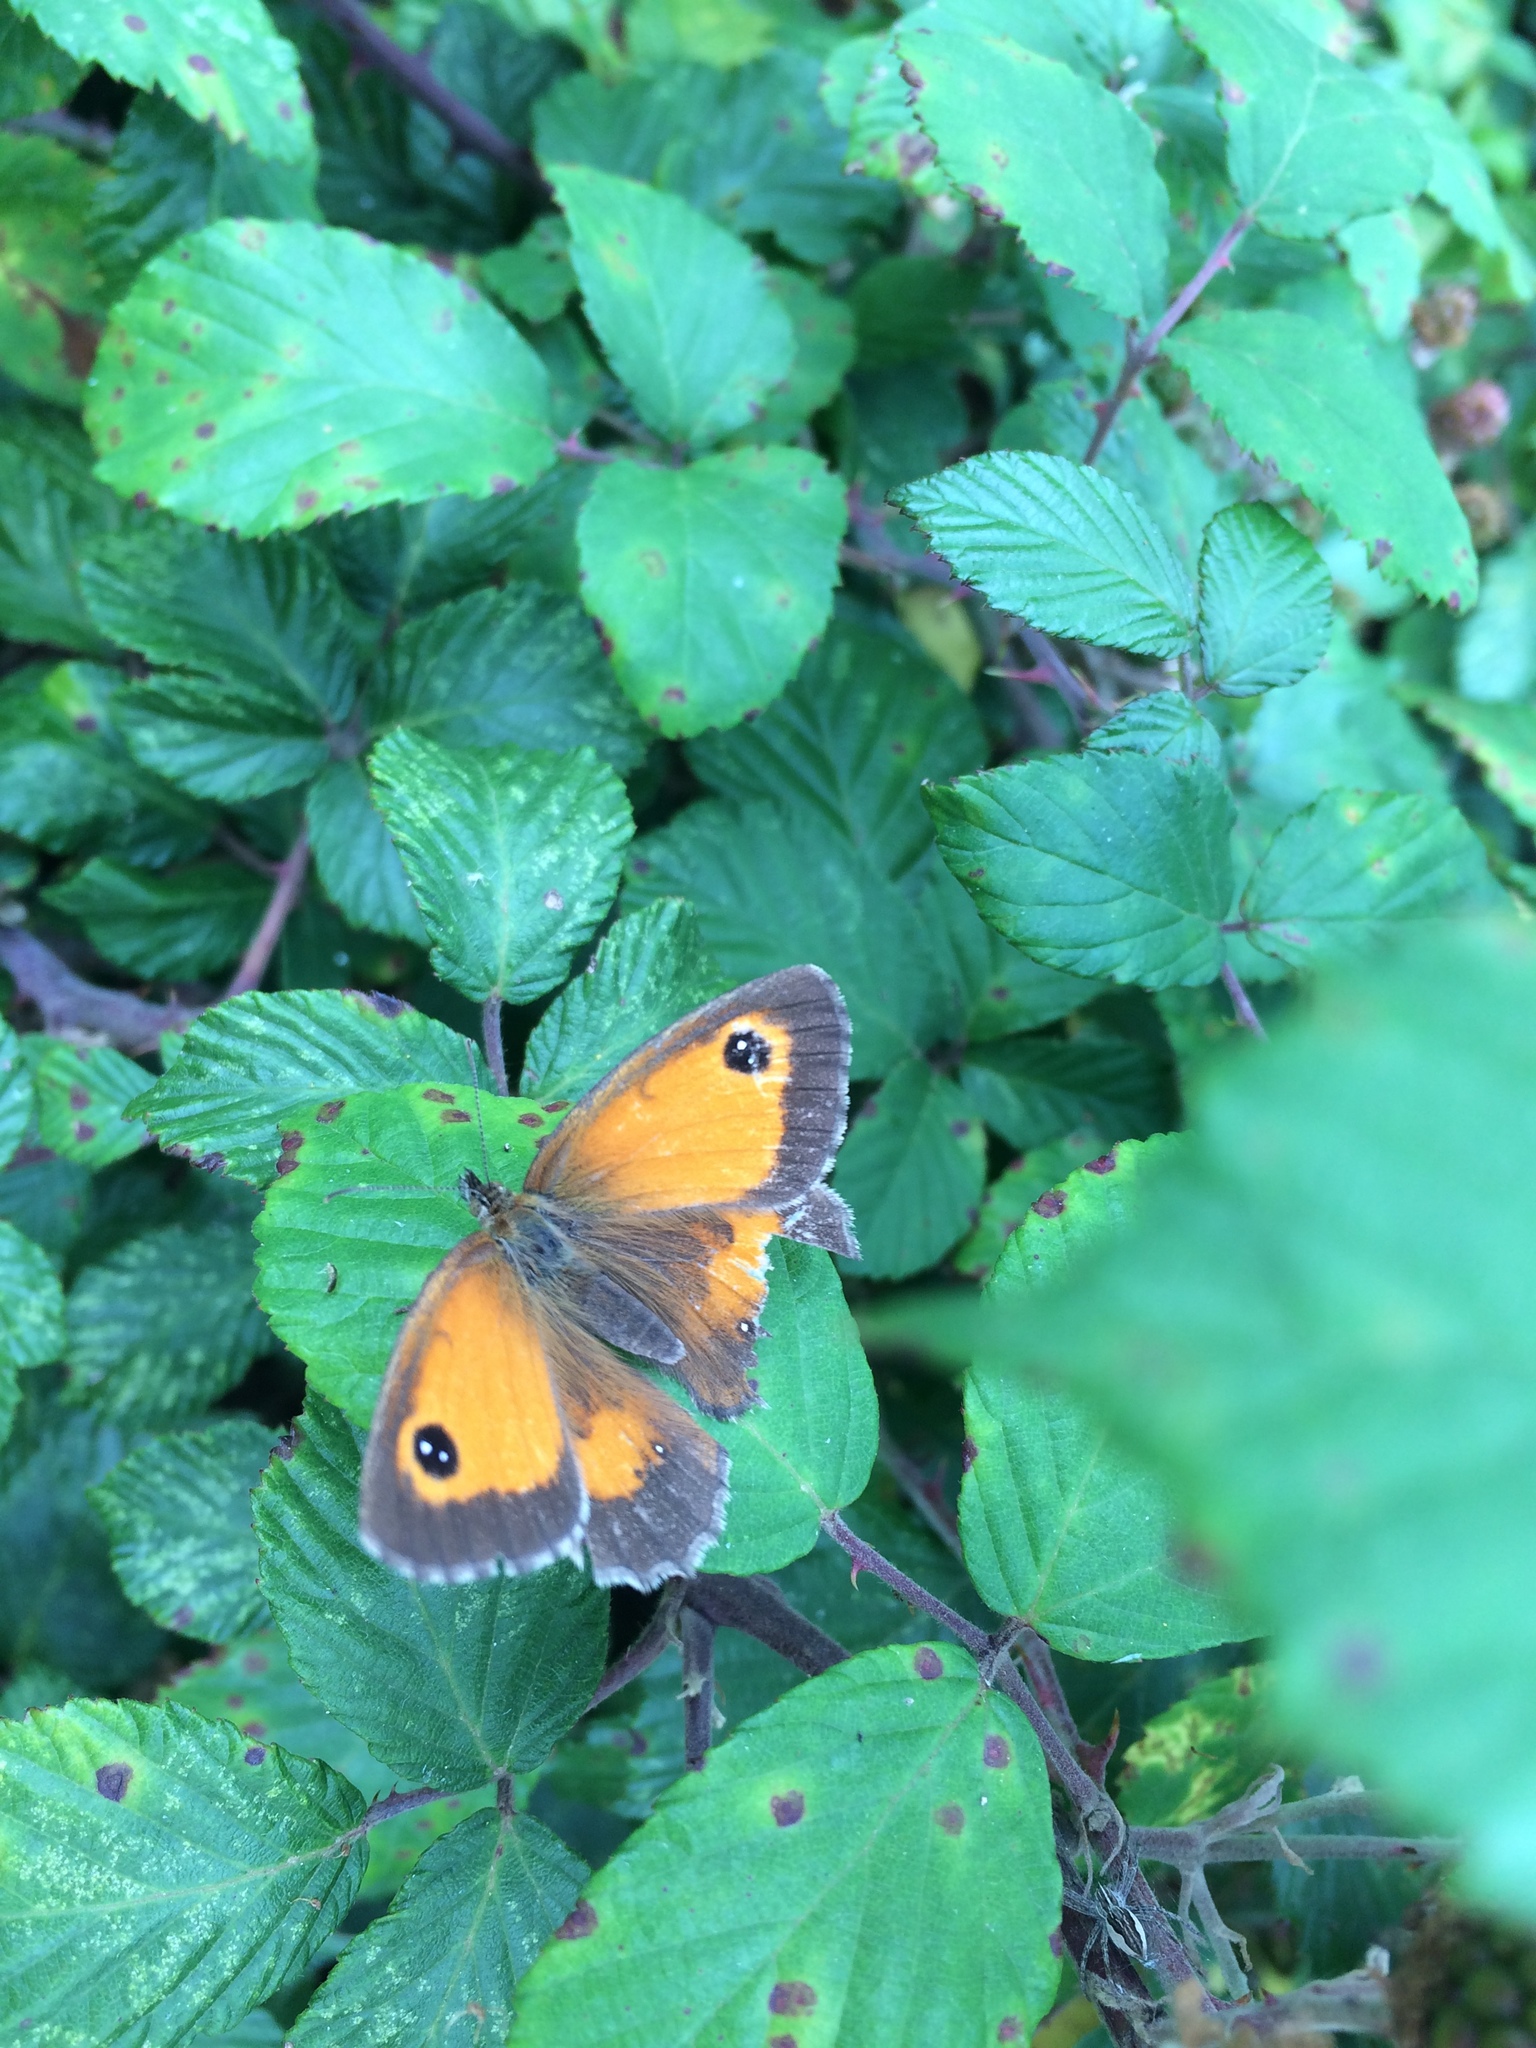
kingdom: Animalia
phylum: Arthropoda
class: Insecta
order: Lepidoptera
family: Nymphalidae
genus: Pyronia
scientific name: Pyronia tithonus
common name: Gatekeeper
